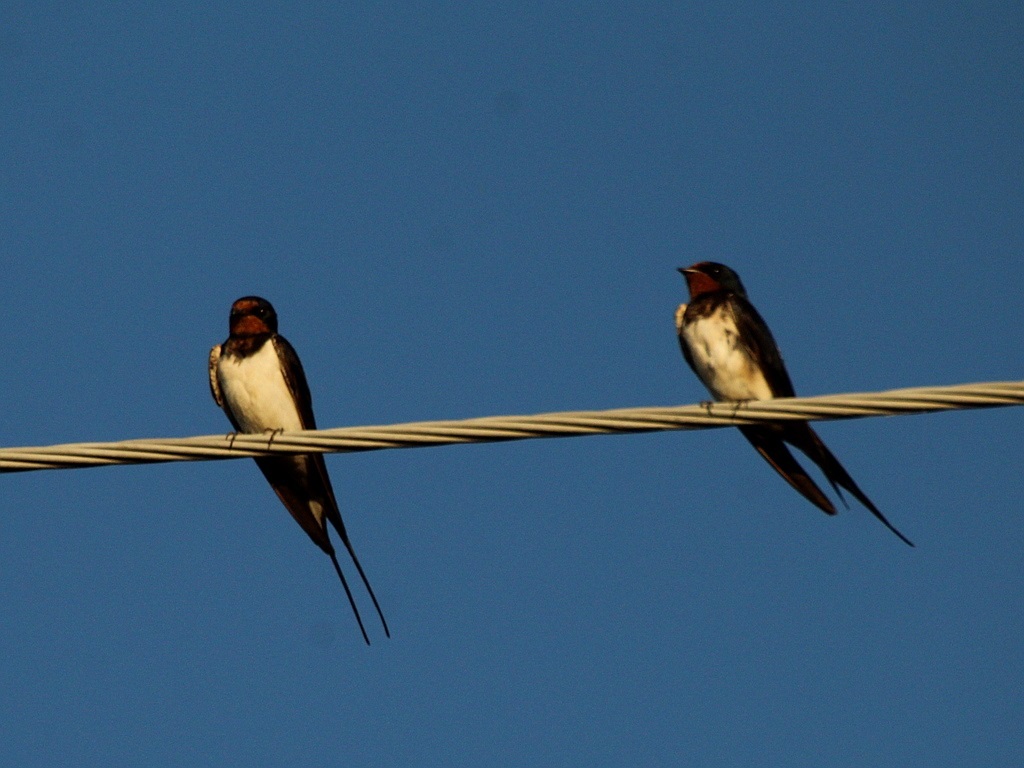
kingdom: Animalia
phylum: Chordata
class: Aves
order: Passeriformes
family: Hirundinidae
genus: Hirundo
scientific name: Hirundo rustica
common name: Barn swallow
